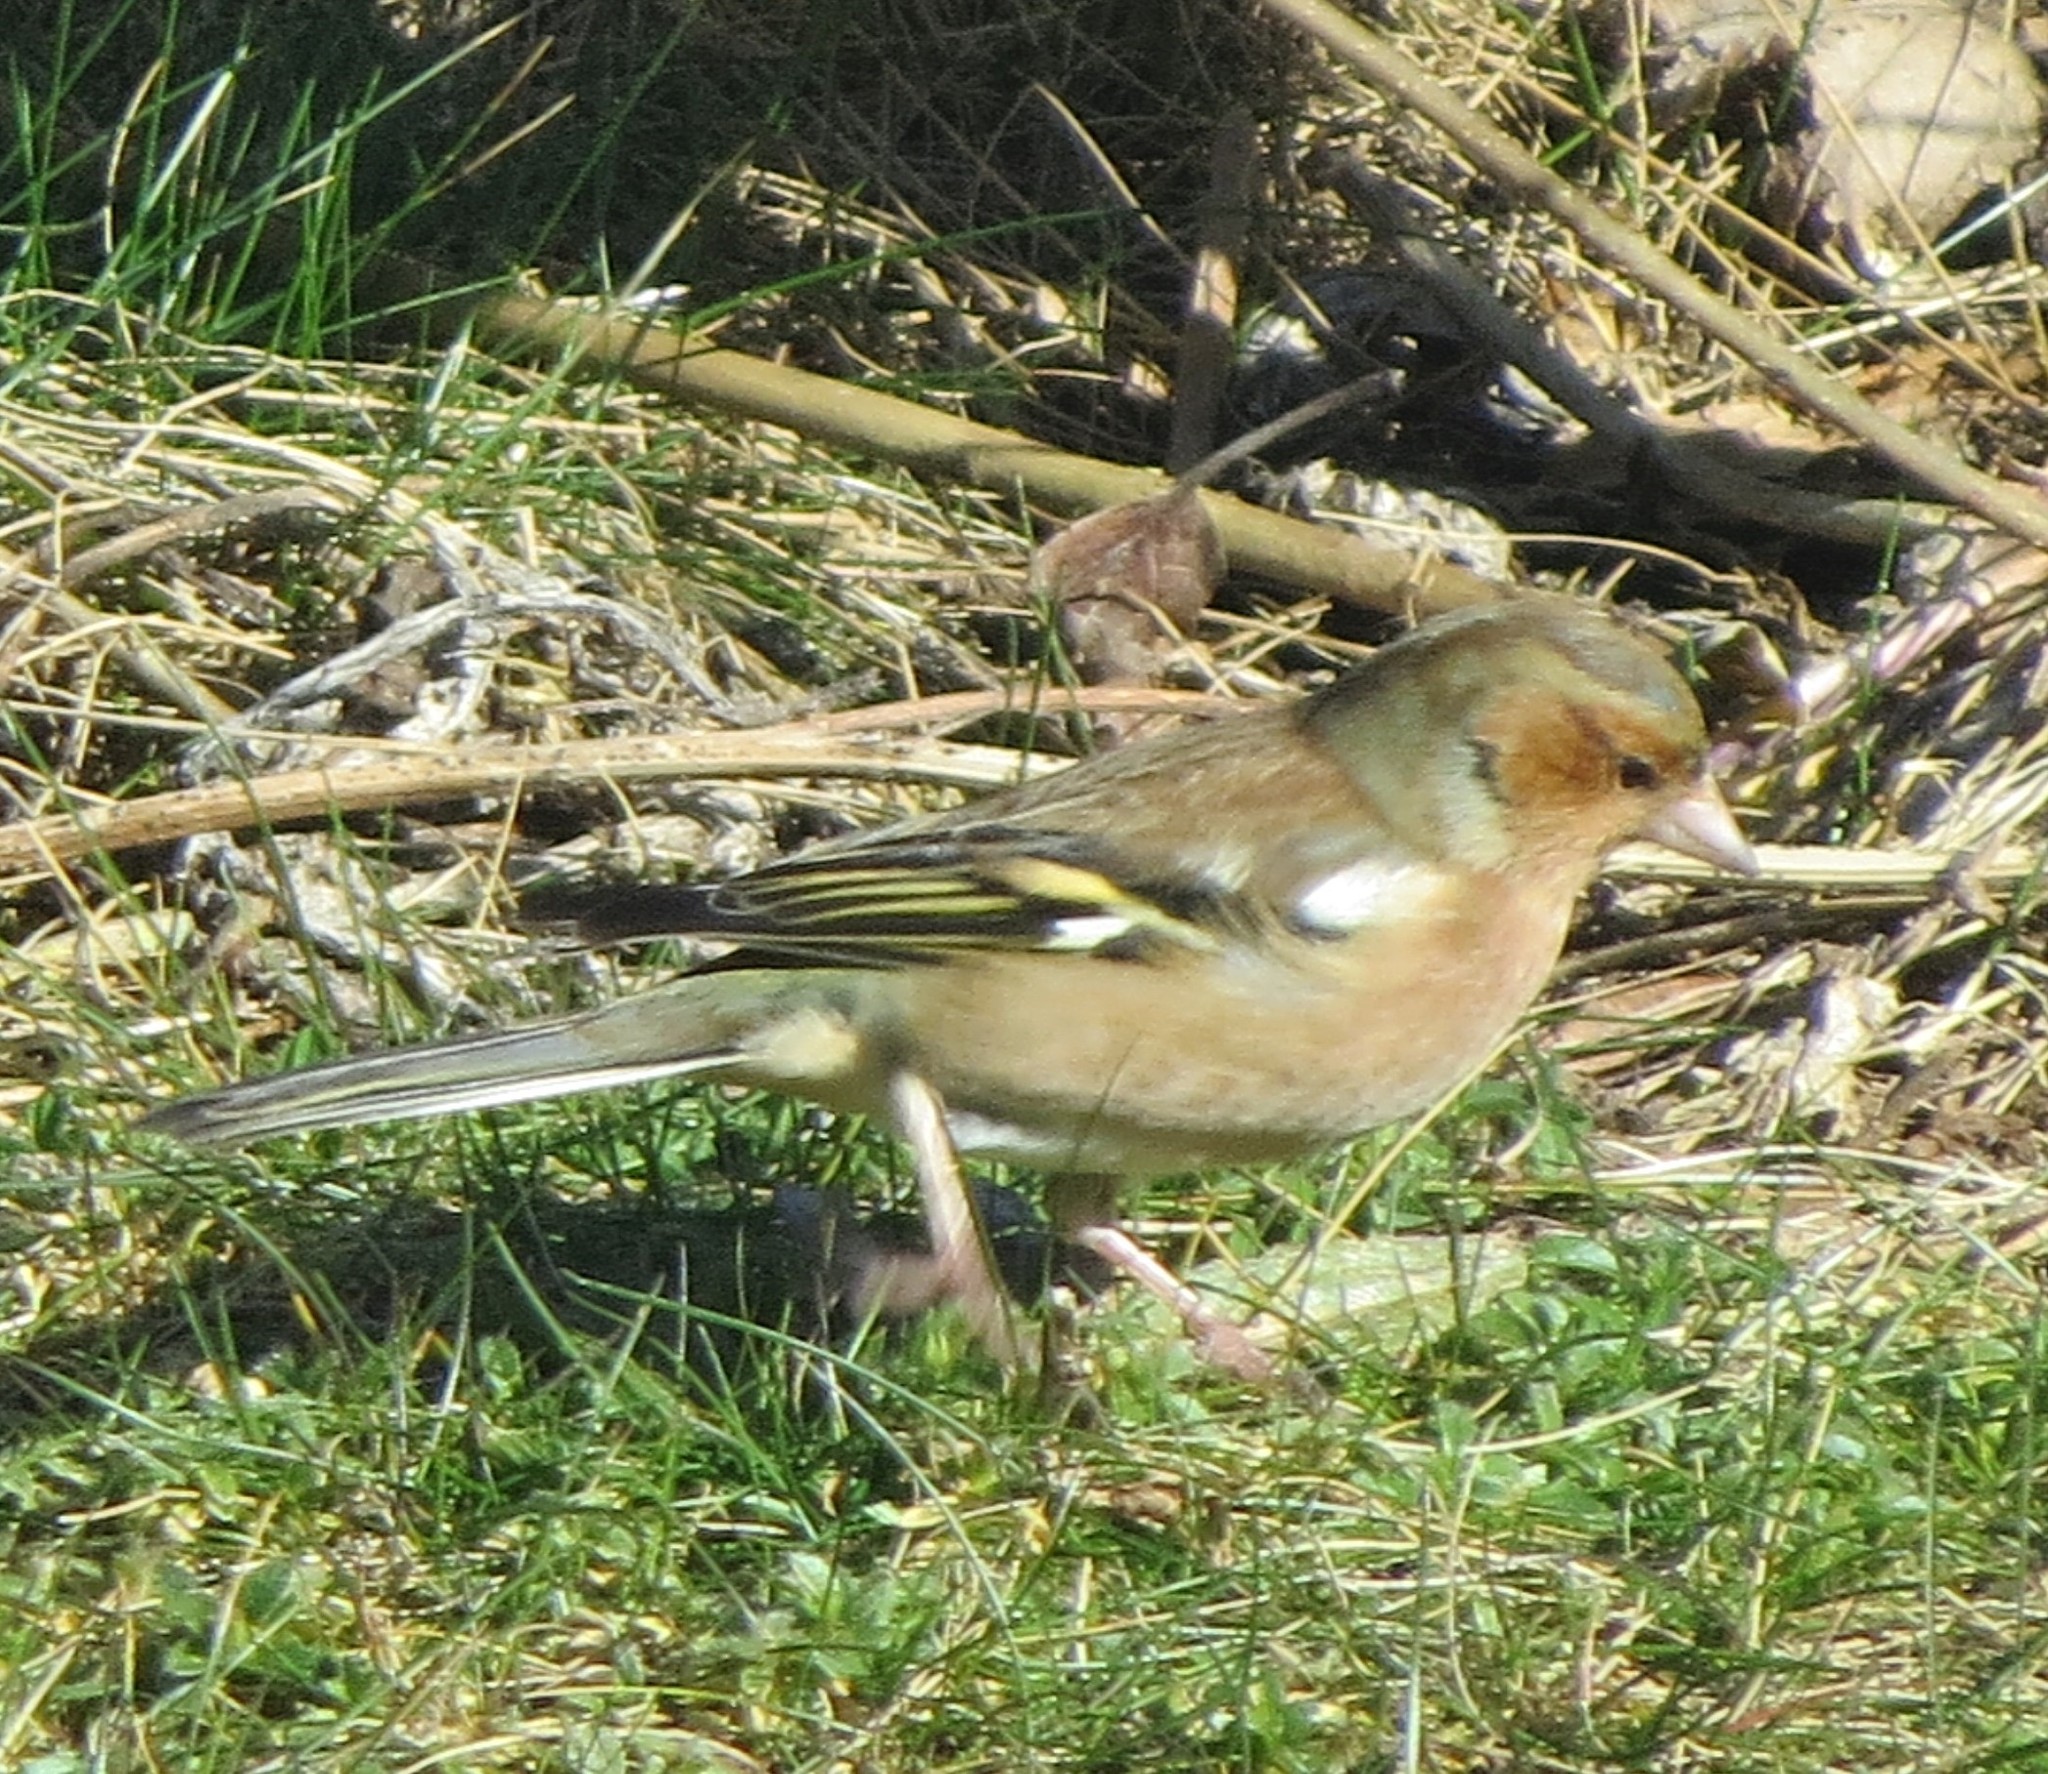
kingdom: Animalia
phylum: Chordata
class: Aves
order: Passeriformes
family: Fringillidae
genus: Fringilla
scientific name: Fringilla coelebs
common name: Common chaffinch
